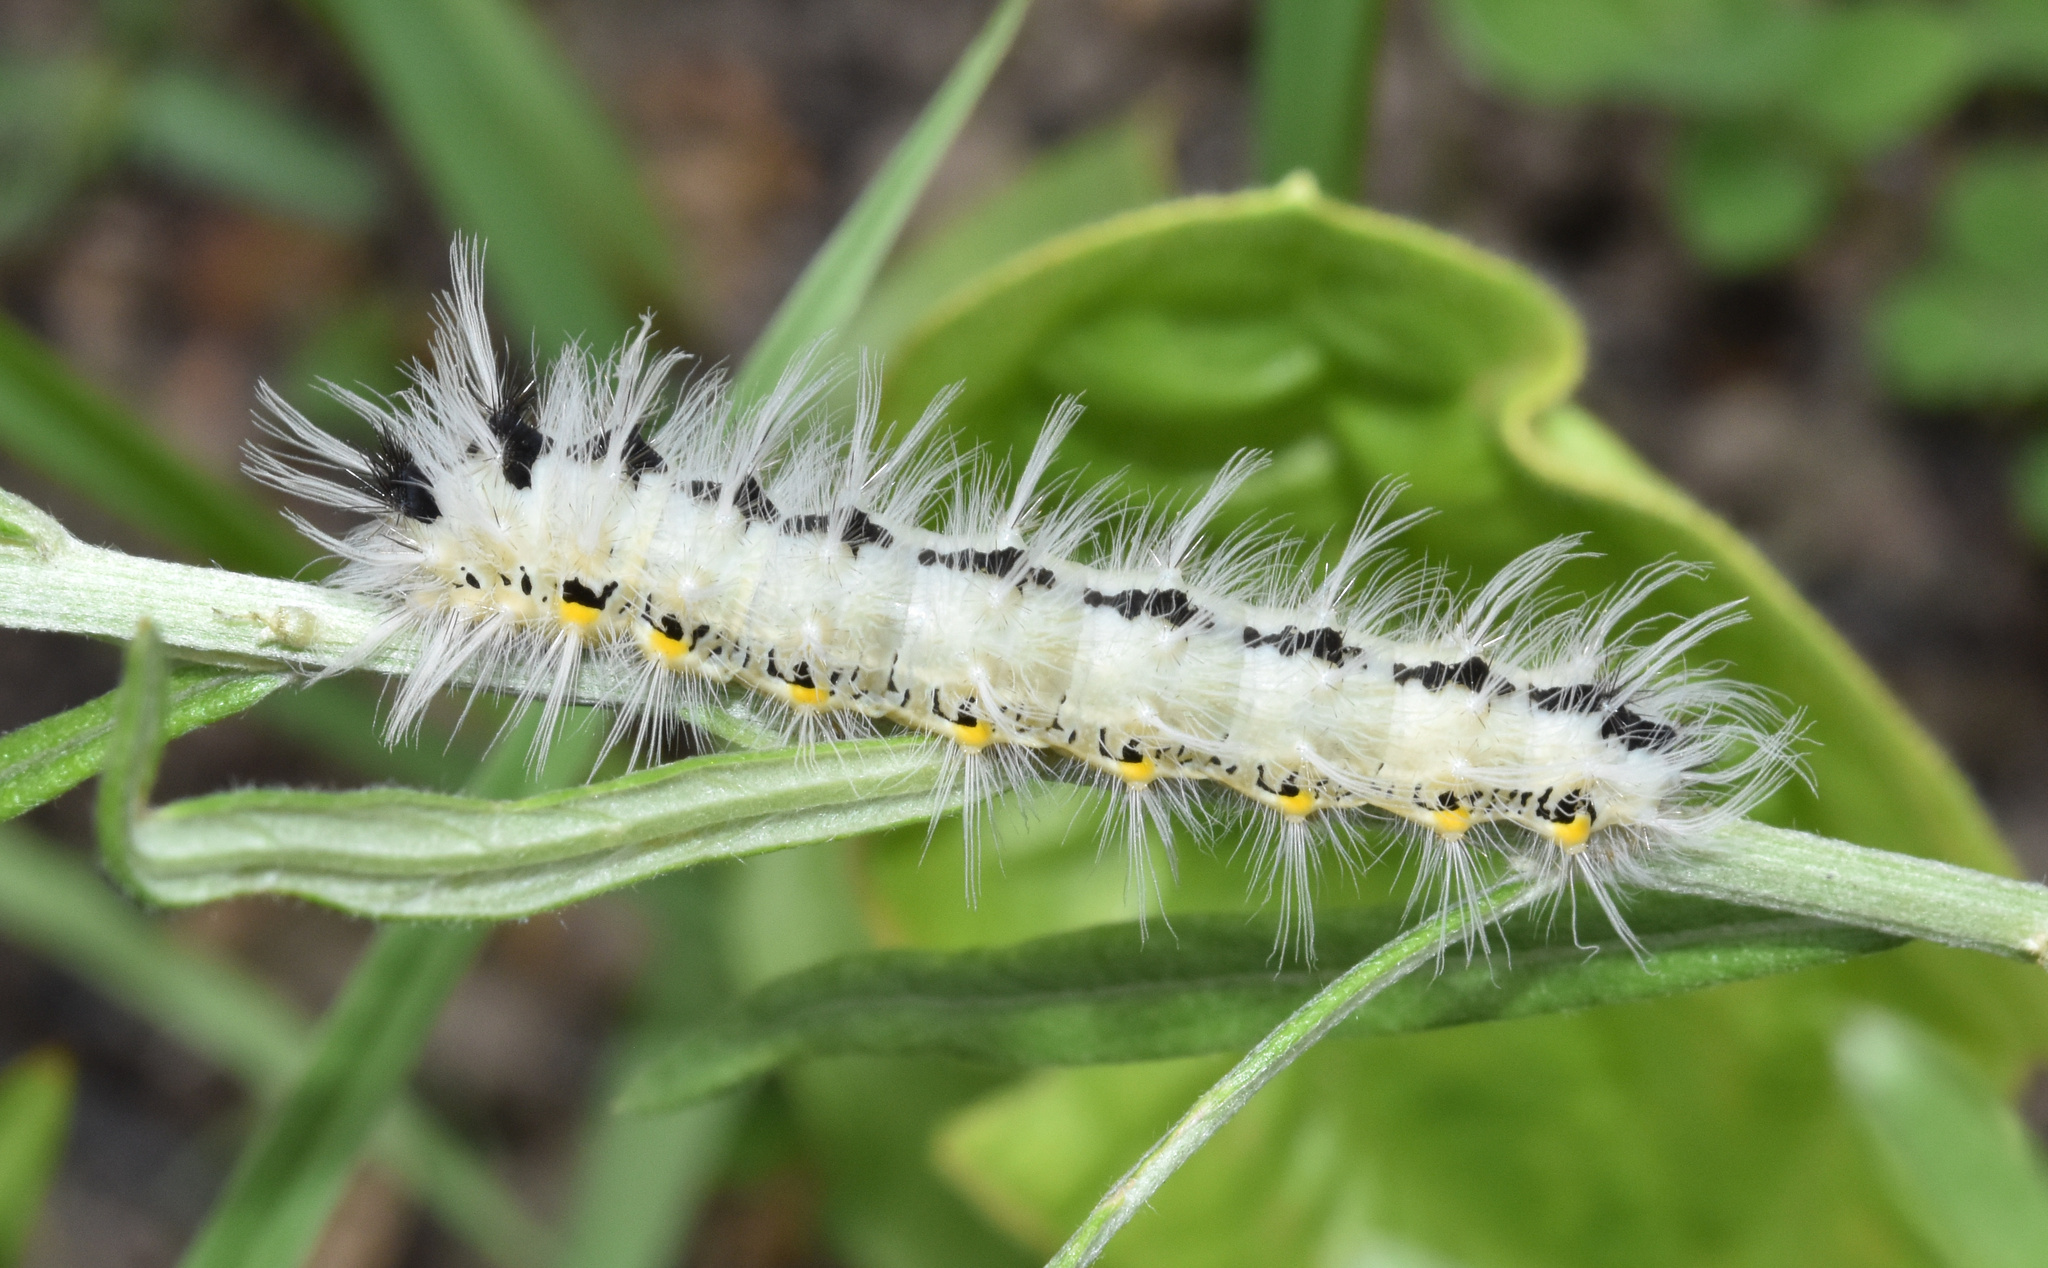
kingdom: Animalia
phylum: Arthropoda
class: Insecta
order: Lepidoptera
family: Saturniidae
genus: Ludia
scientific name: Ludia delegorguei
